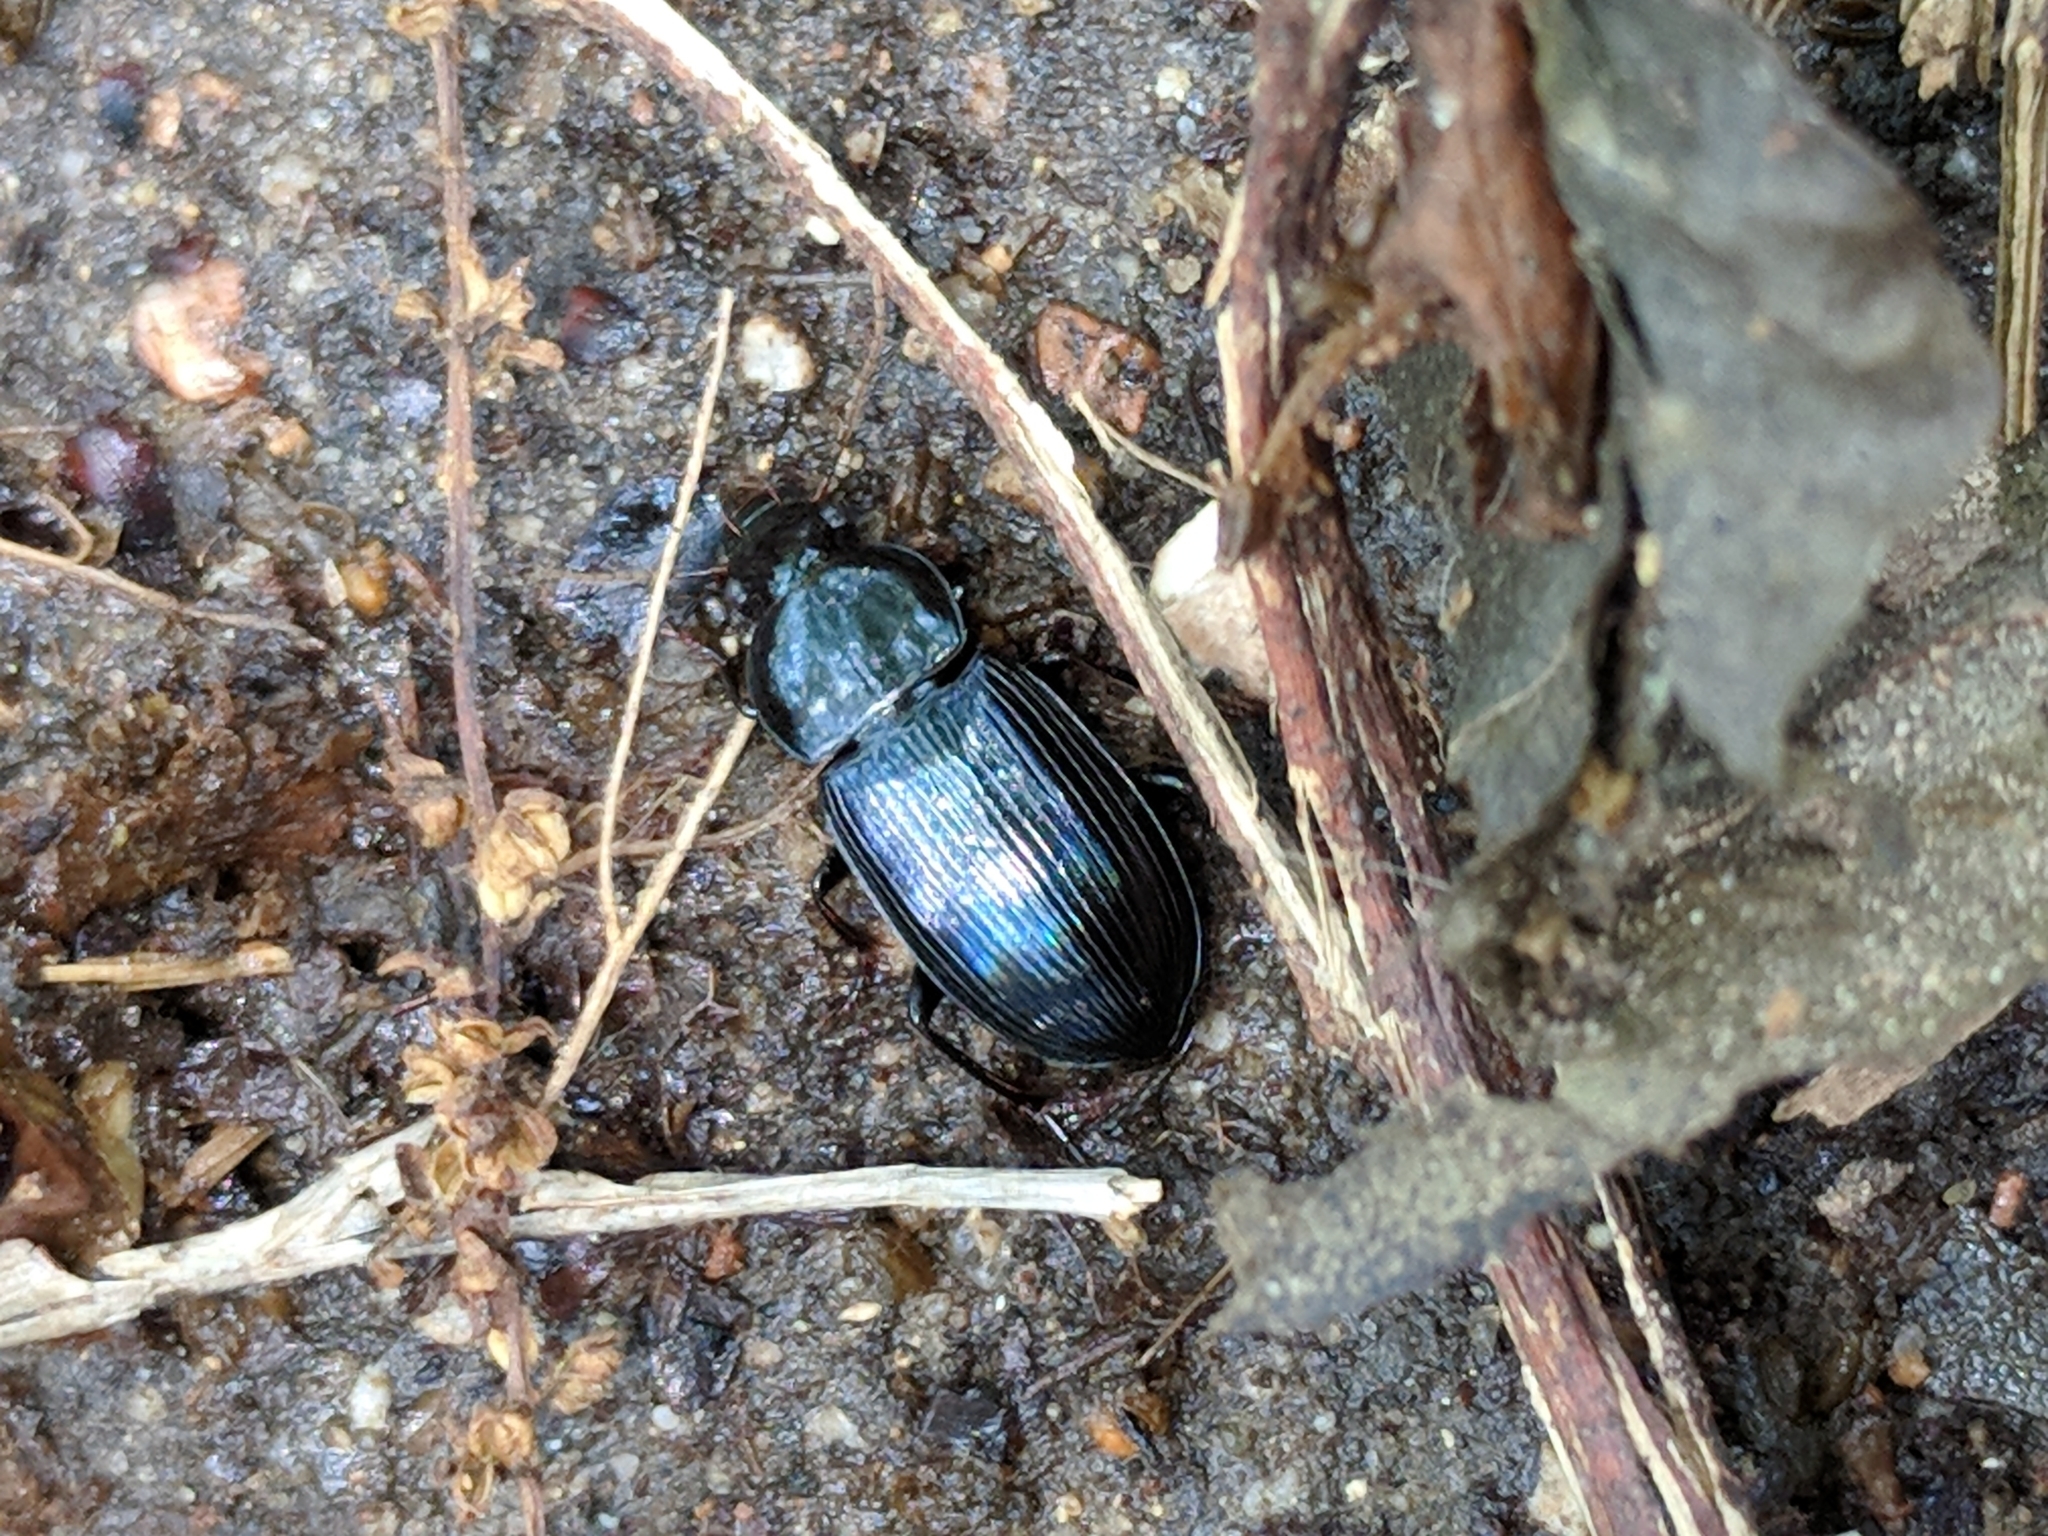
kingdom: Animalia
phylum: Arthropoda
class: Insecta
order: Coleoptera
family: Carabidae
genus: Aztecarpalus
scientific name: Aztecarpalus schaefferi
